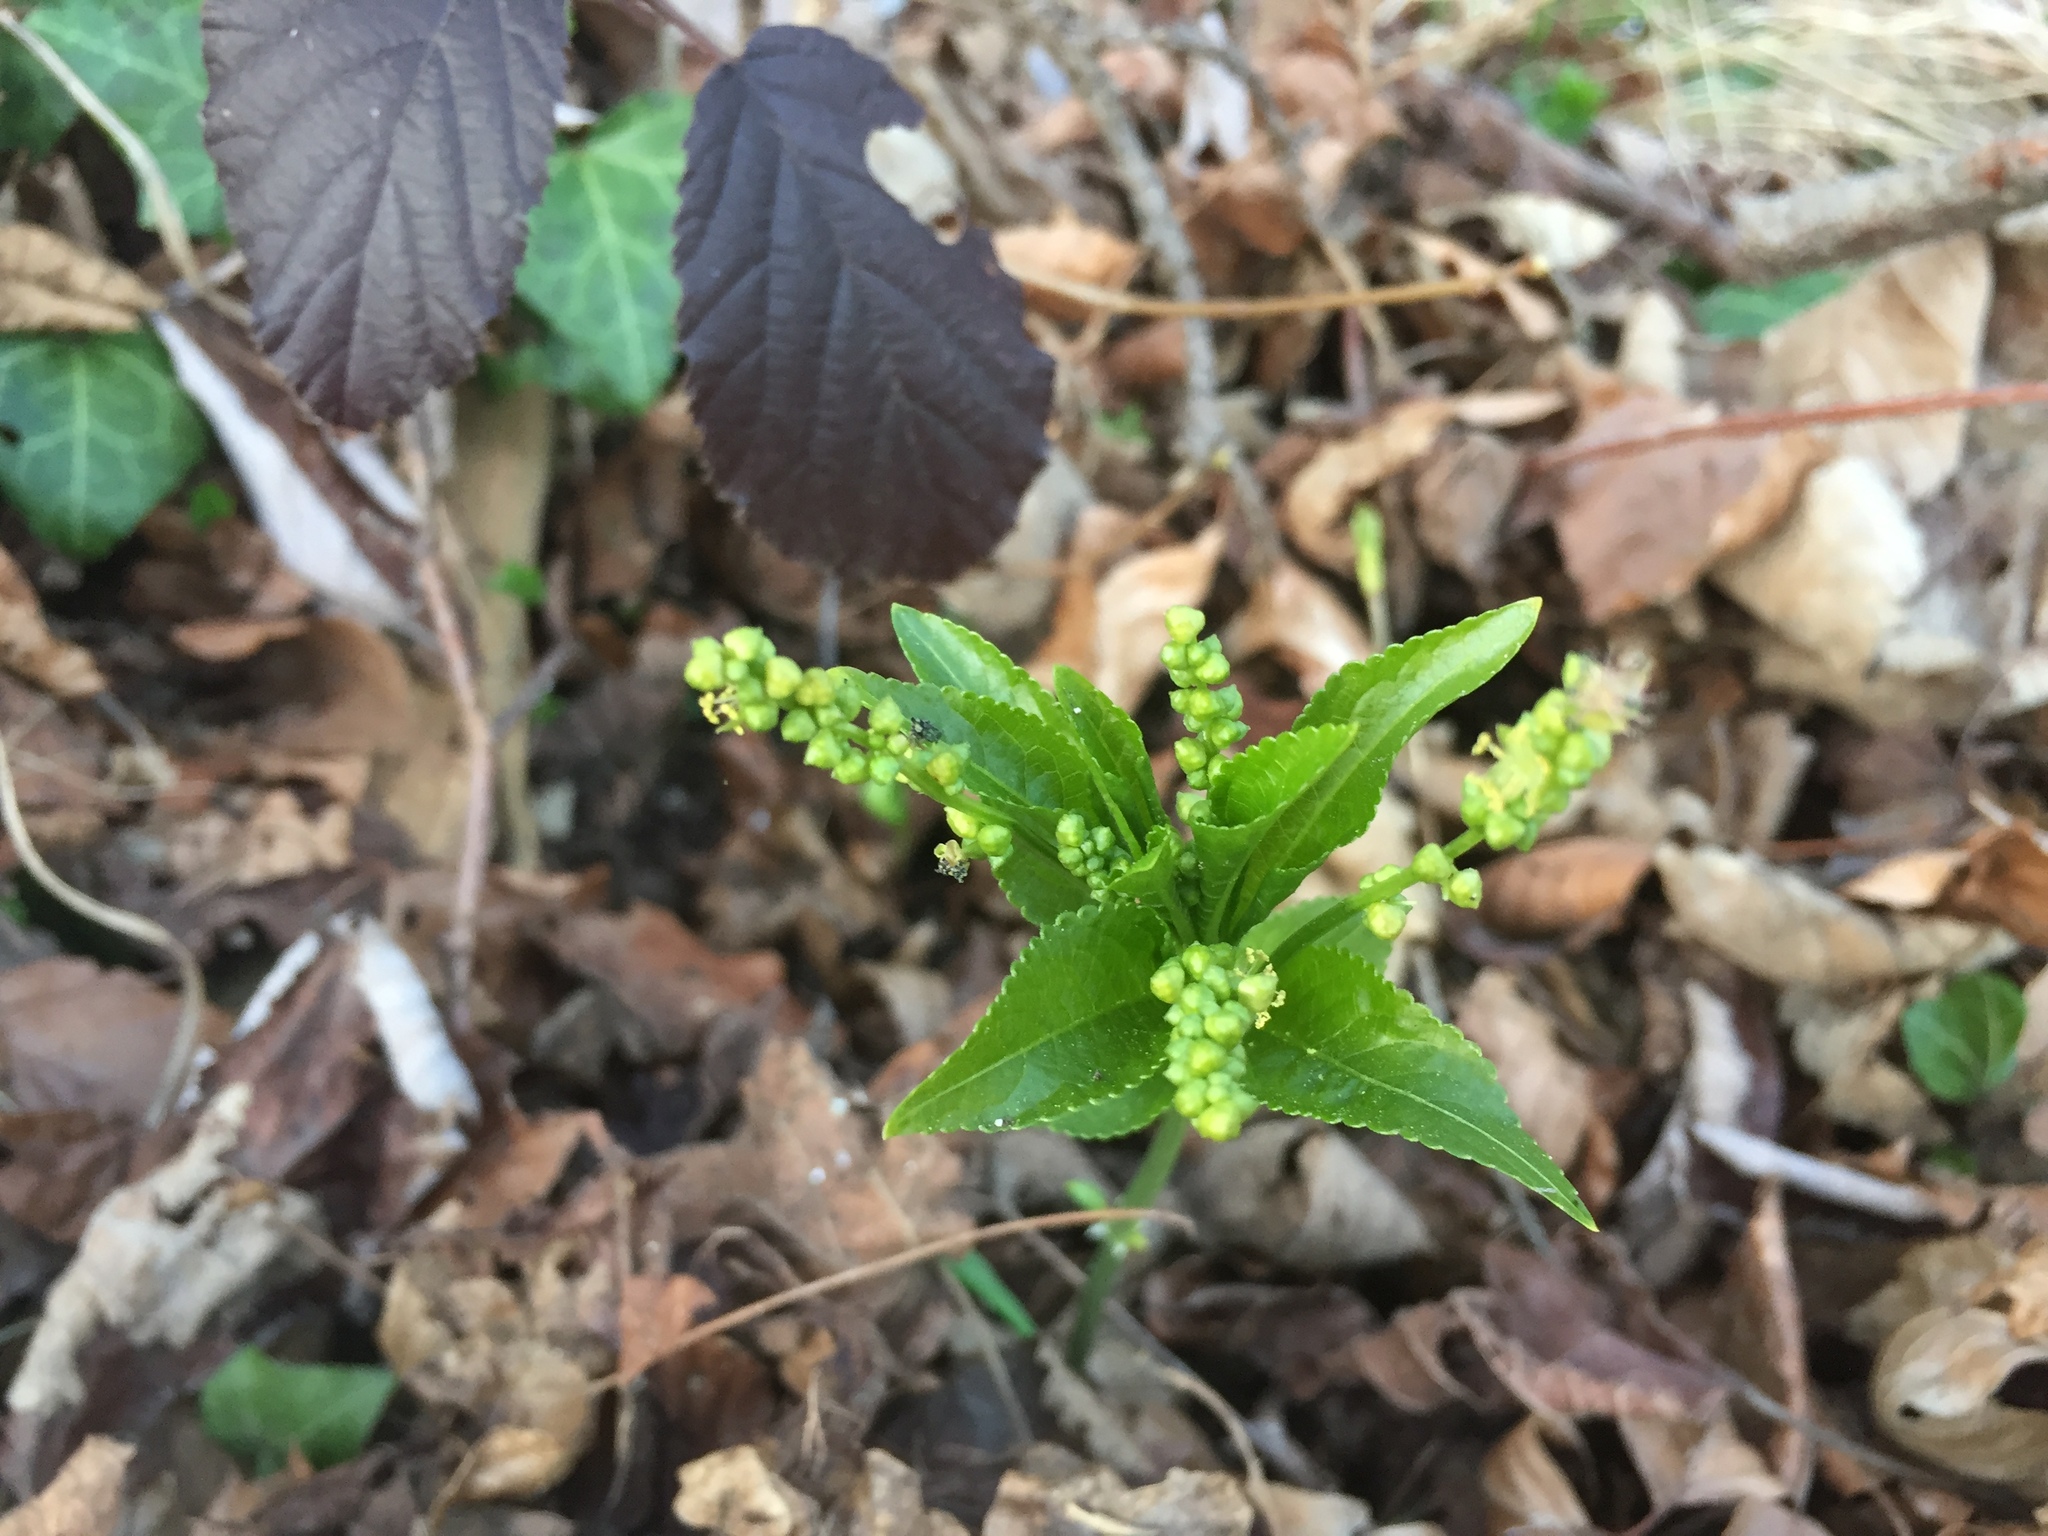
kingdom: Plantae
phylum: Tracheophyta
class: Magnoliopsida
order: Malpighiales
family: Euphorbiaceae
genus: Mercurialis
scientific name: Mercurialis perennis
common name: Dog mercury
